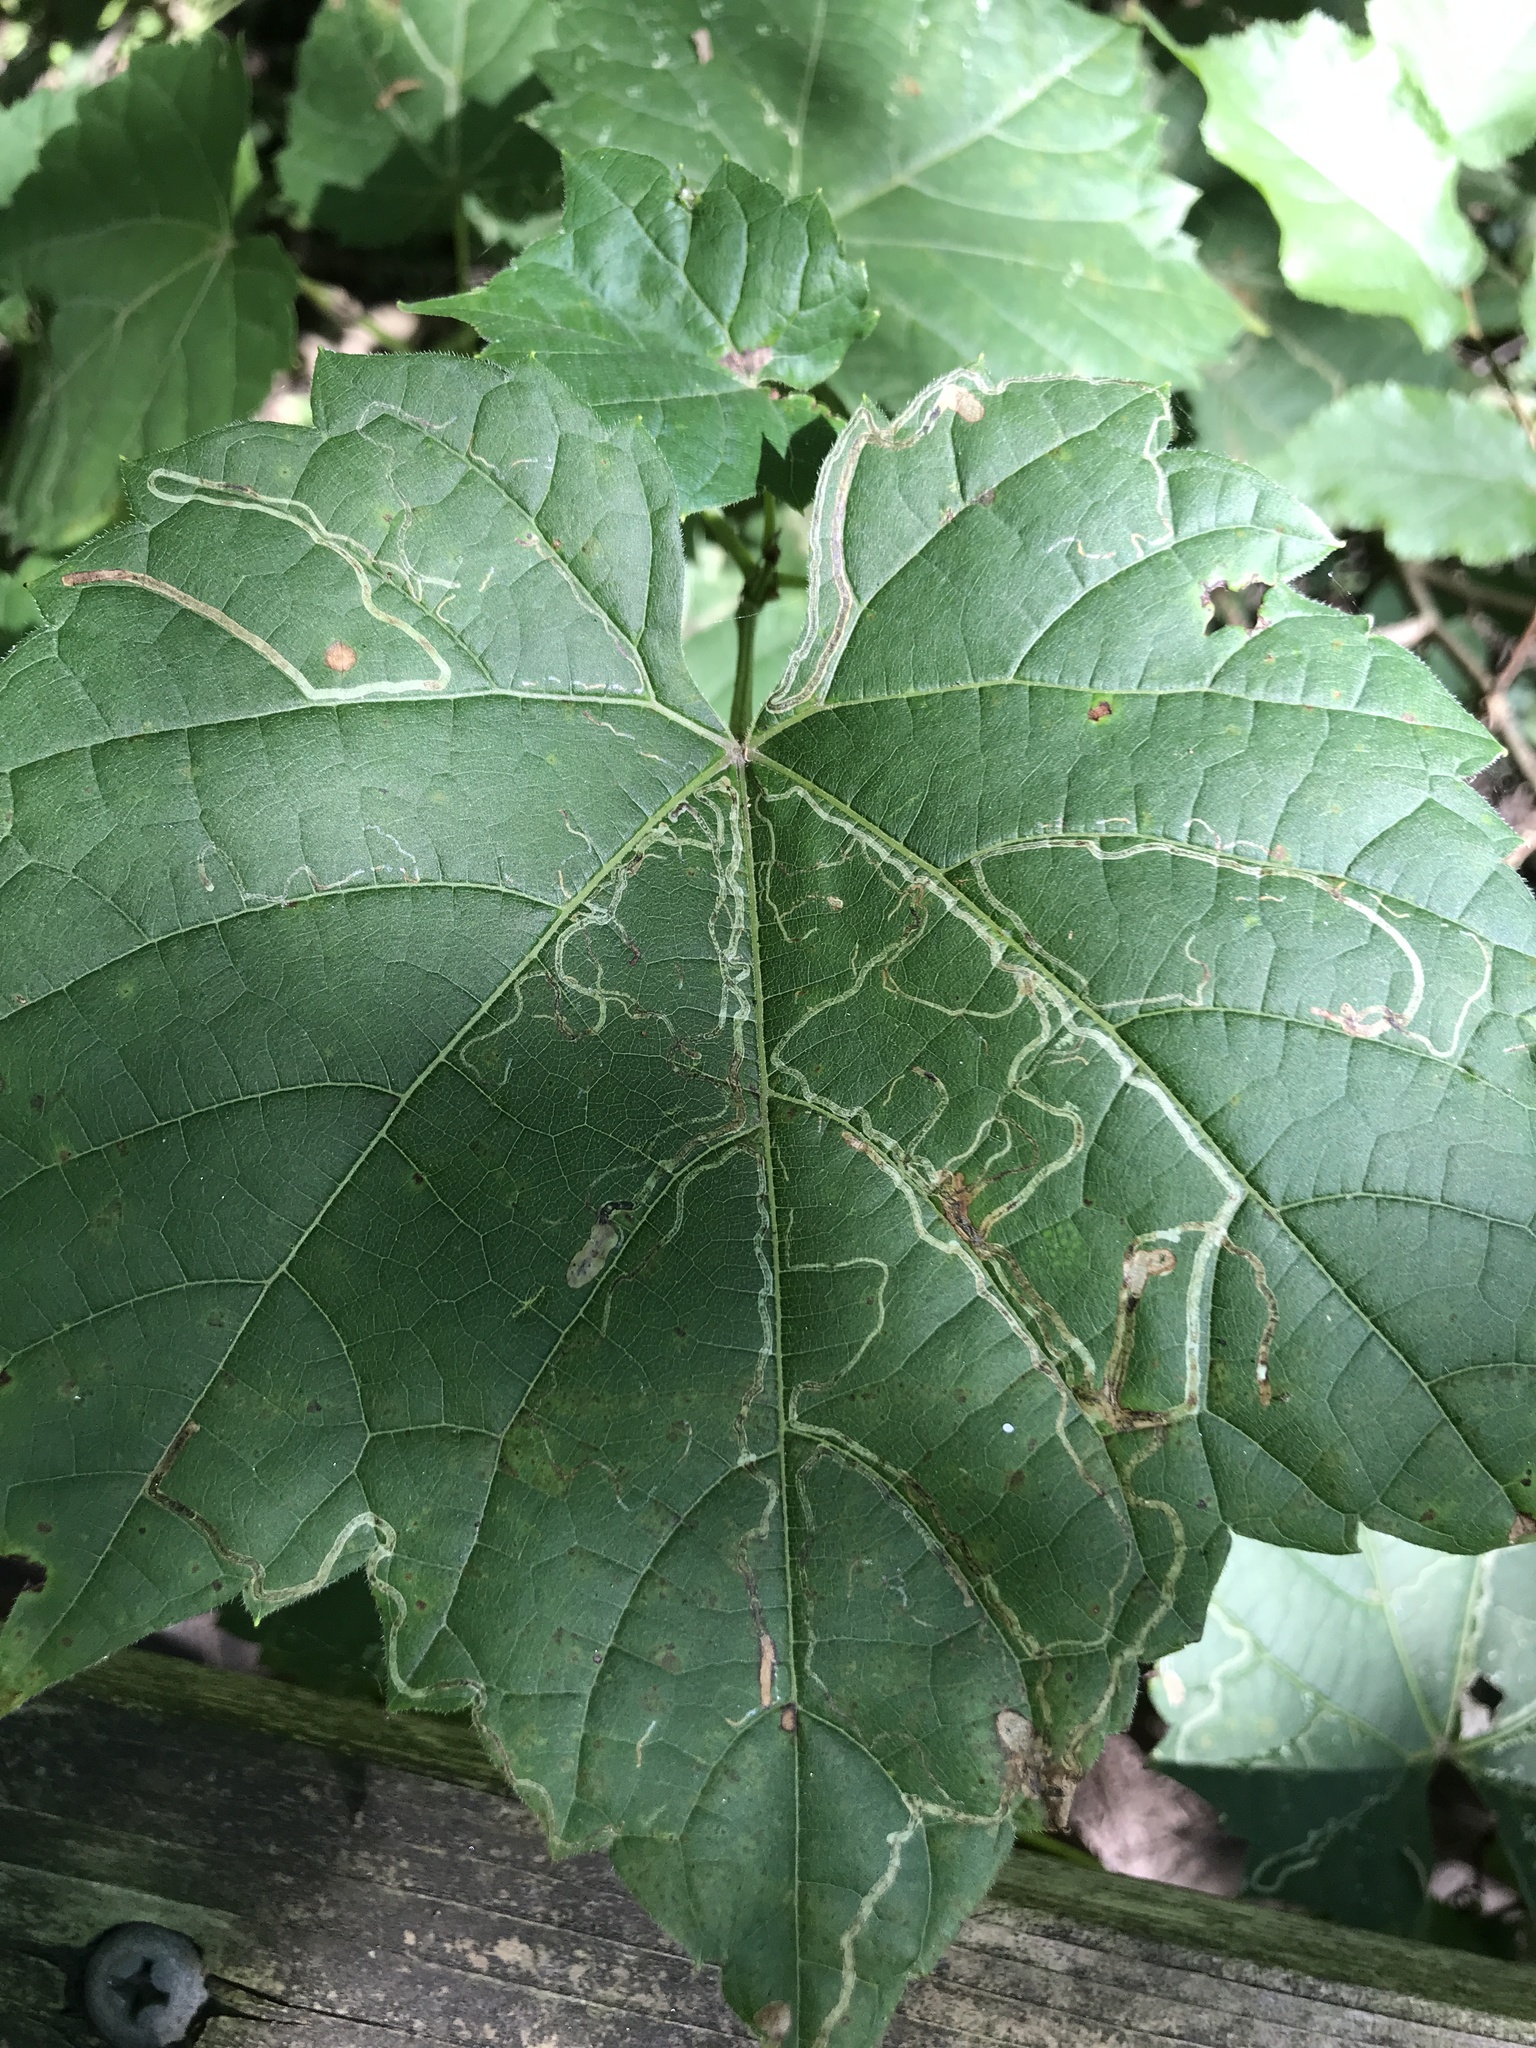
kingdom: Animalia
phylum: Arthropoda
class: Insecta
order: Lepidoptera
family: Gracillariidae
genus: Phyllocnistis
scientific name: Phyllocnistis vitifoliella
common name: Grape leaf-miner moth
